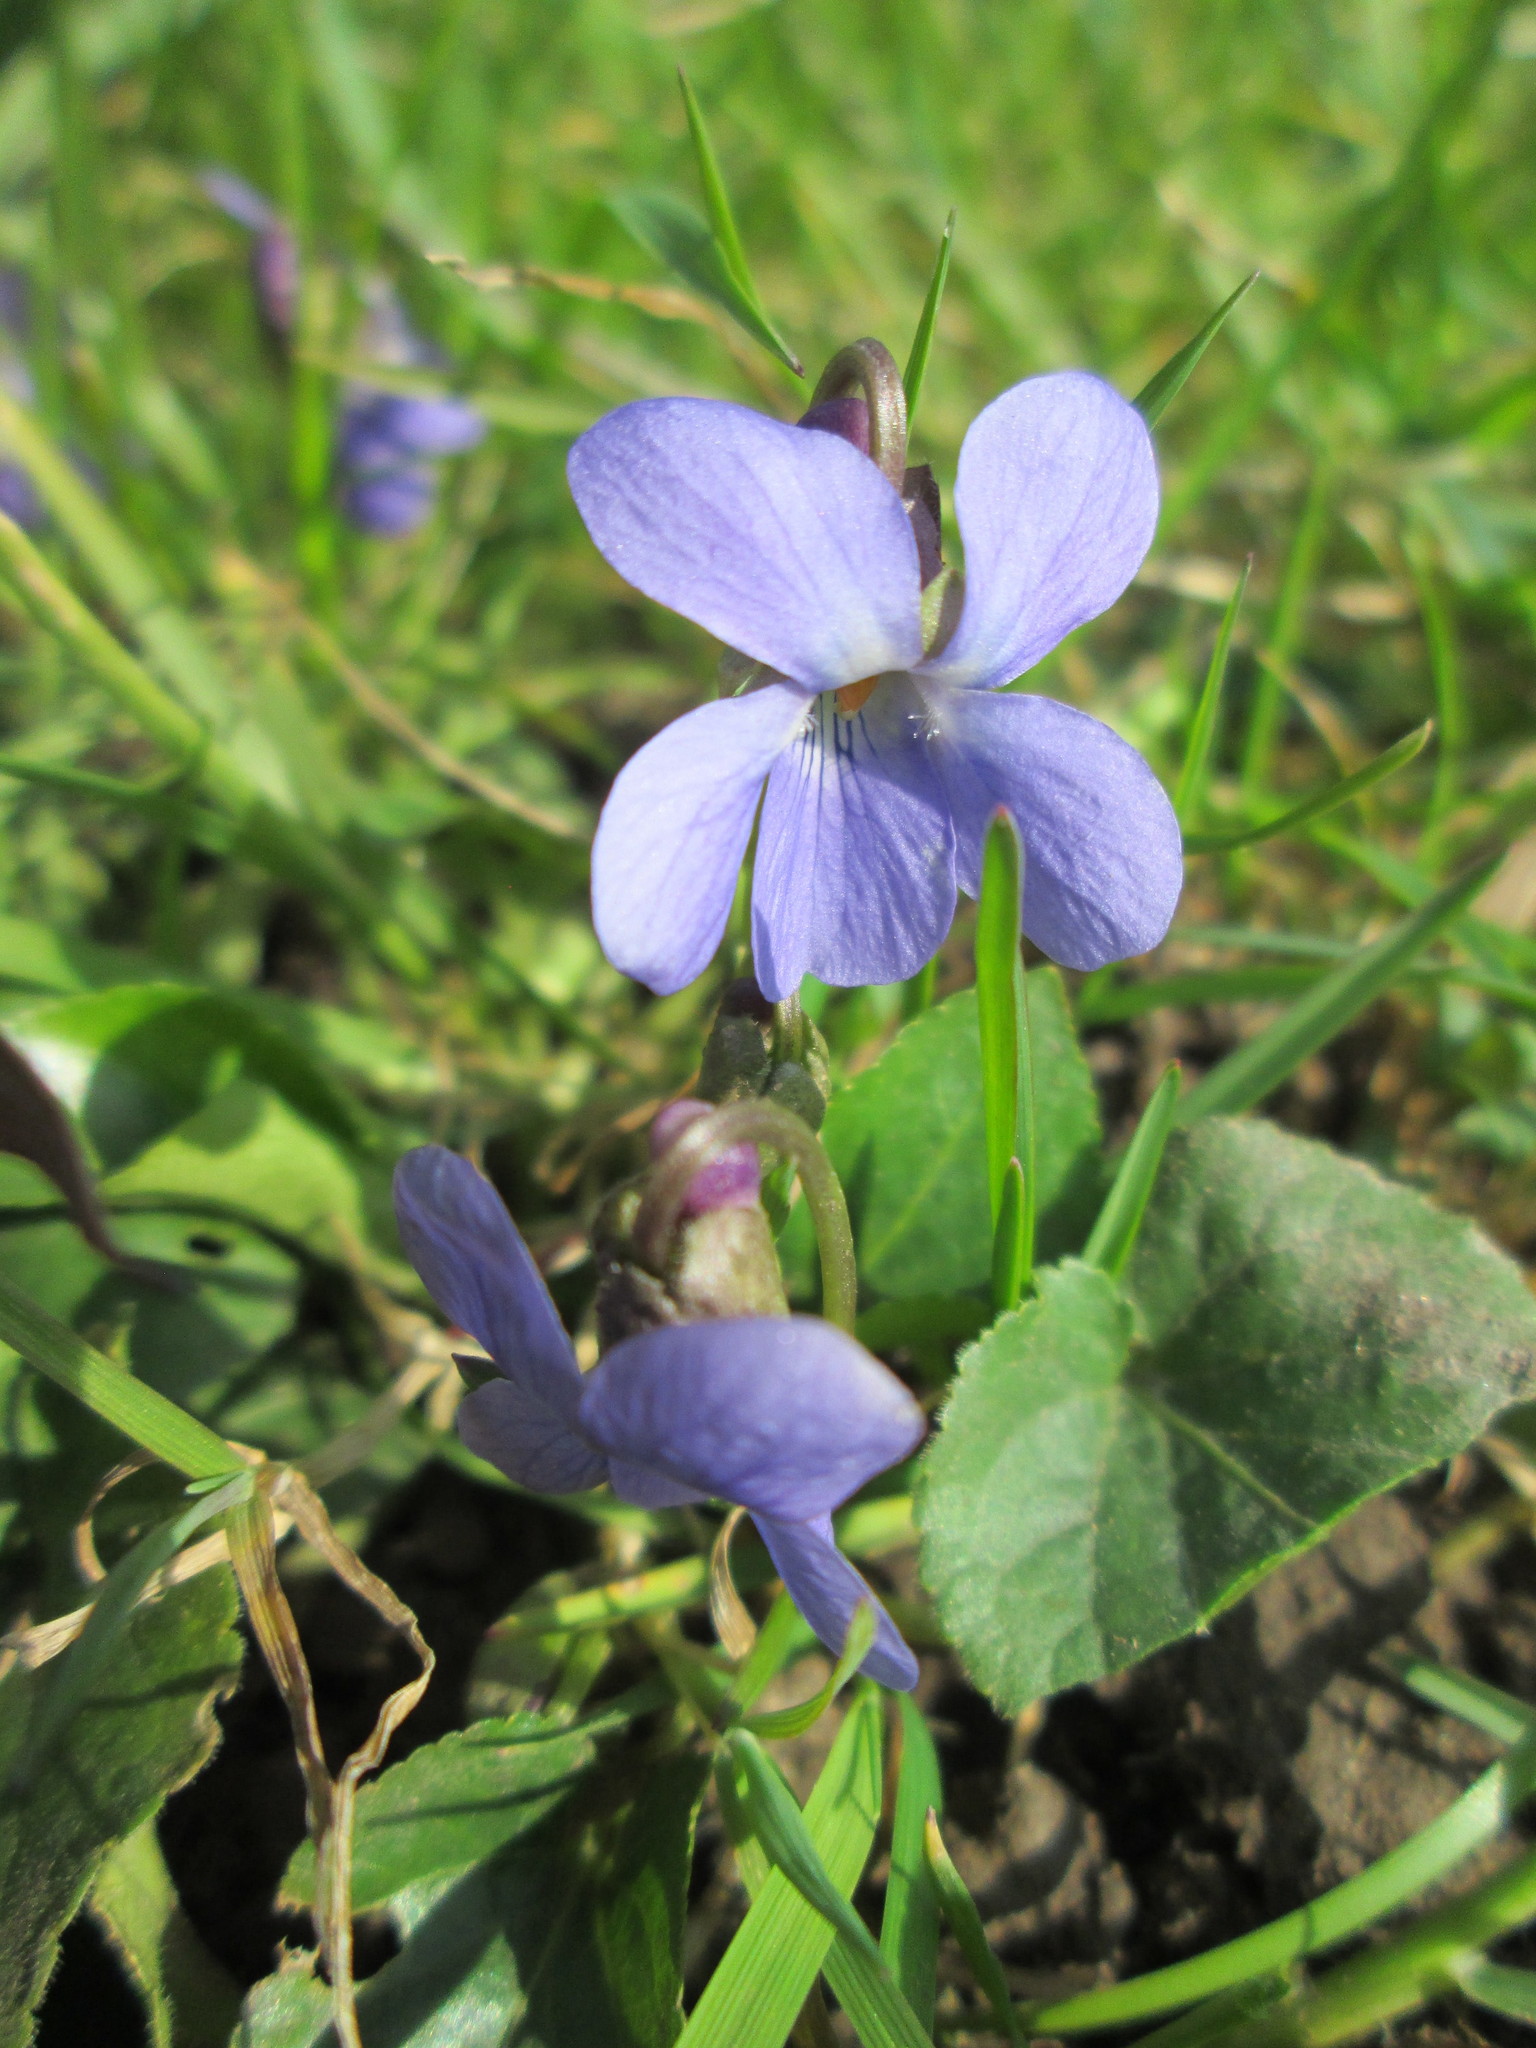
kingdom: Plantae
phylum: Tracheophyta
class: Magnoliopsida
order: Malpighiales
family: Violaceae
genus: Viola
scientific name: Viola odorata
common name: Sweet violet
